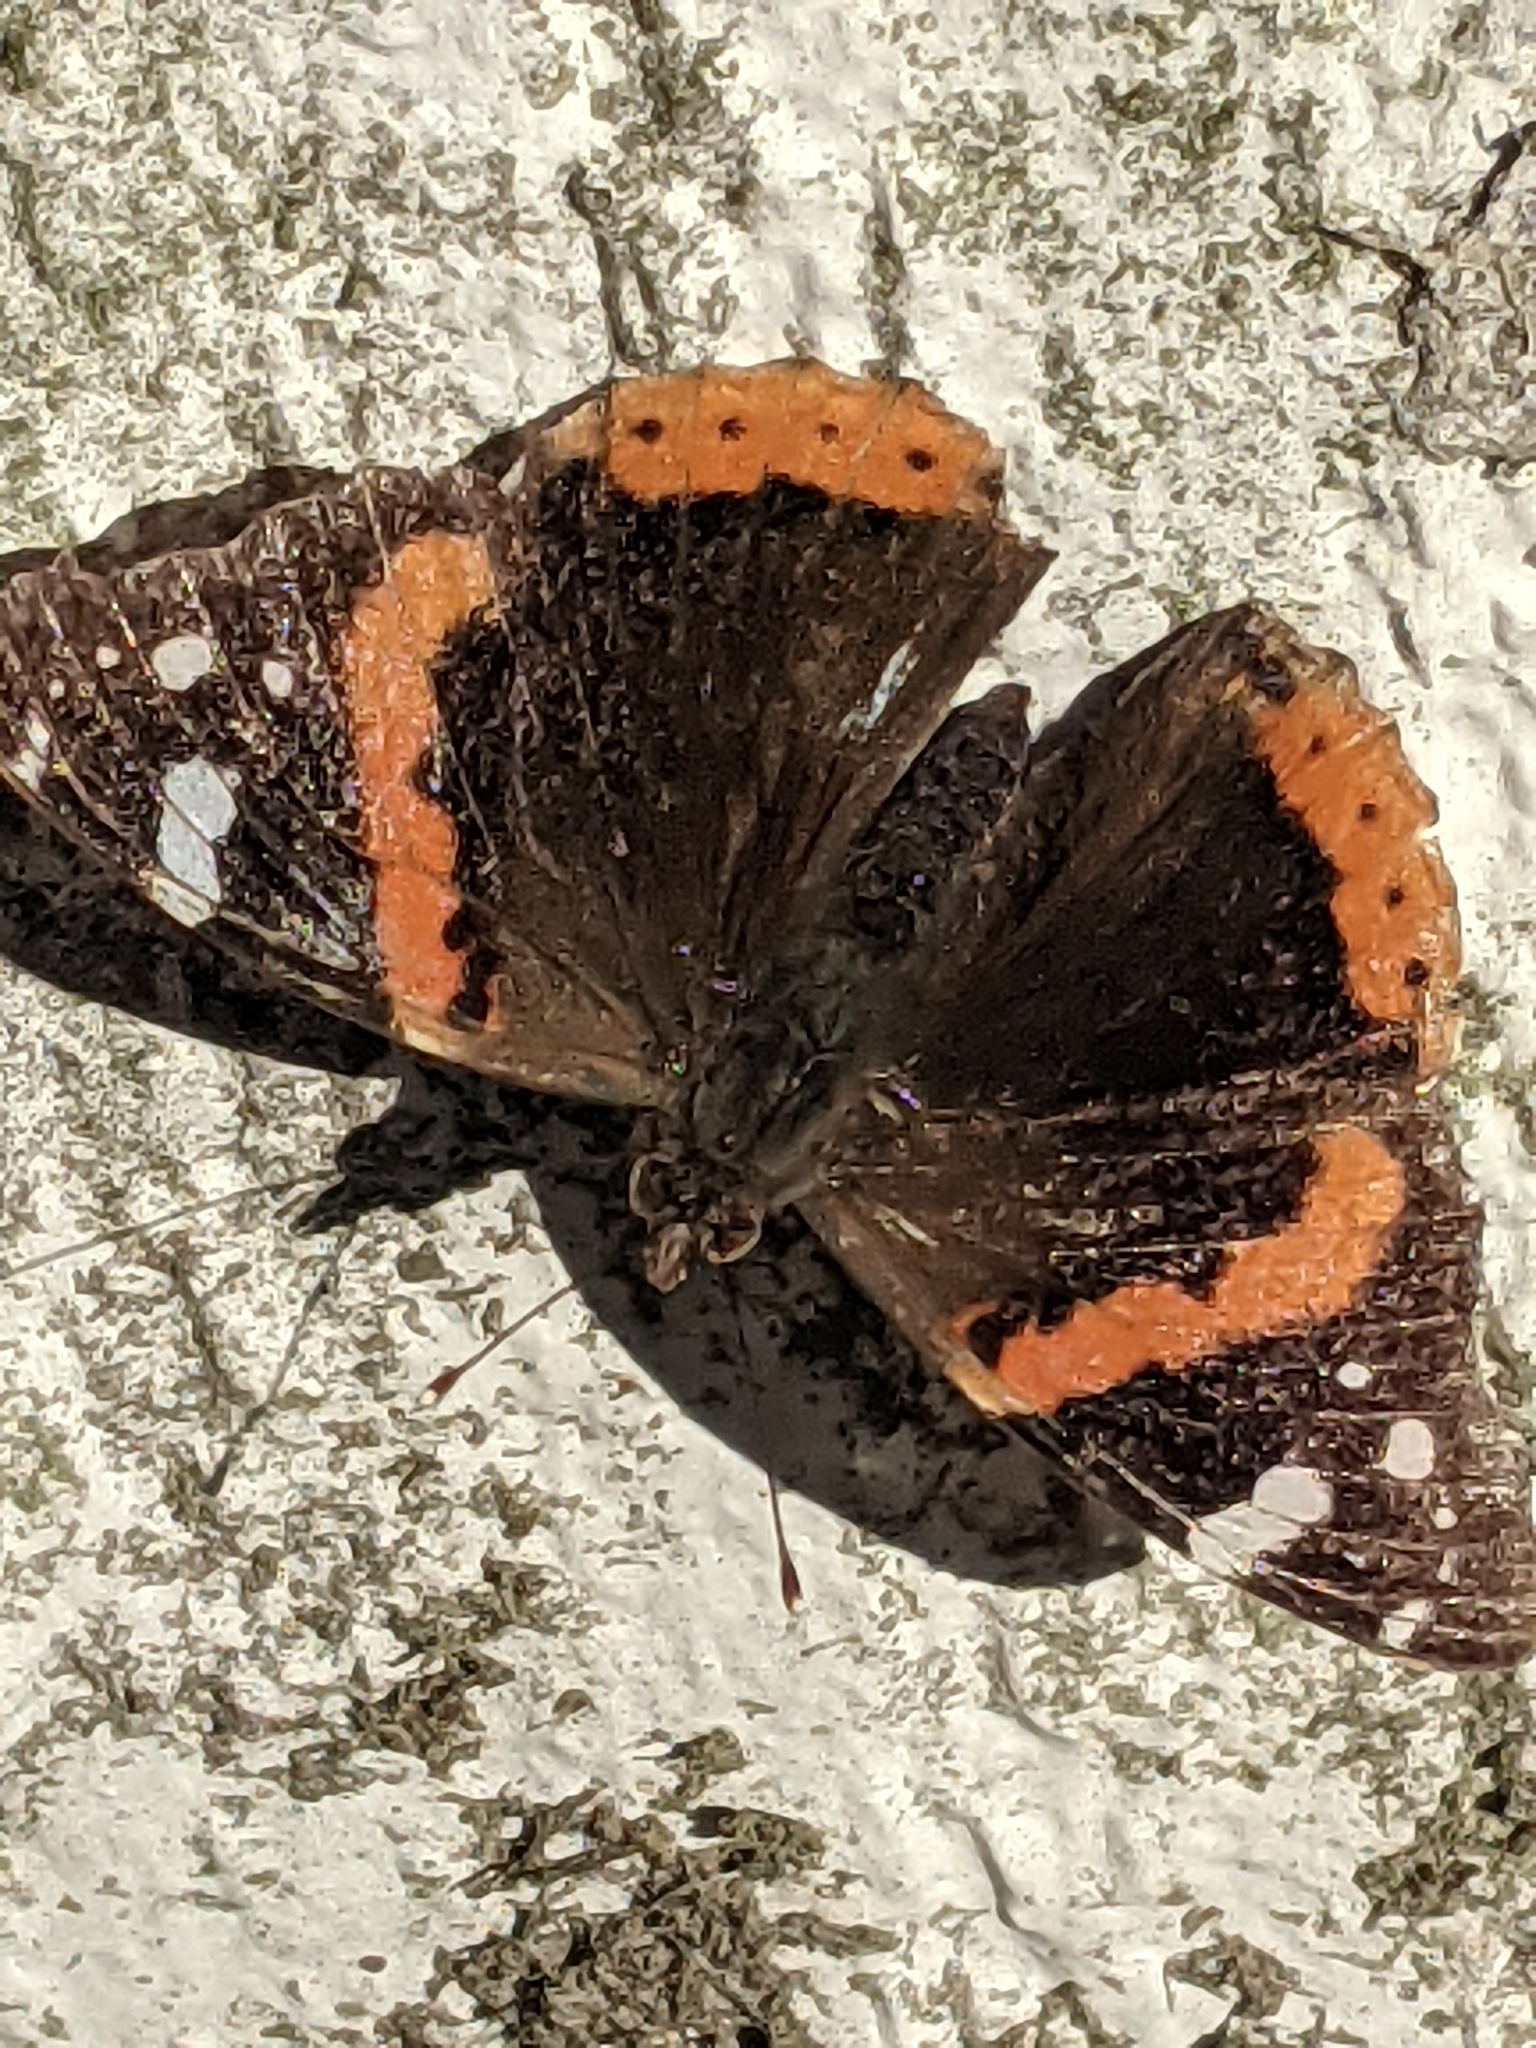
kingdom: Animalia
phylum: Arthropoda
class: Insecta
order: Lepidoptera
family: Nymphalidae
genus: Vanessa
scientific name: Vanessa atalanta
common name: Red admiral
